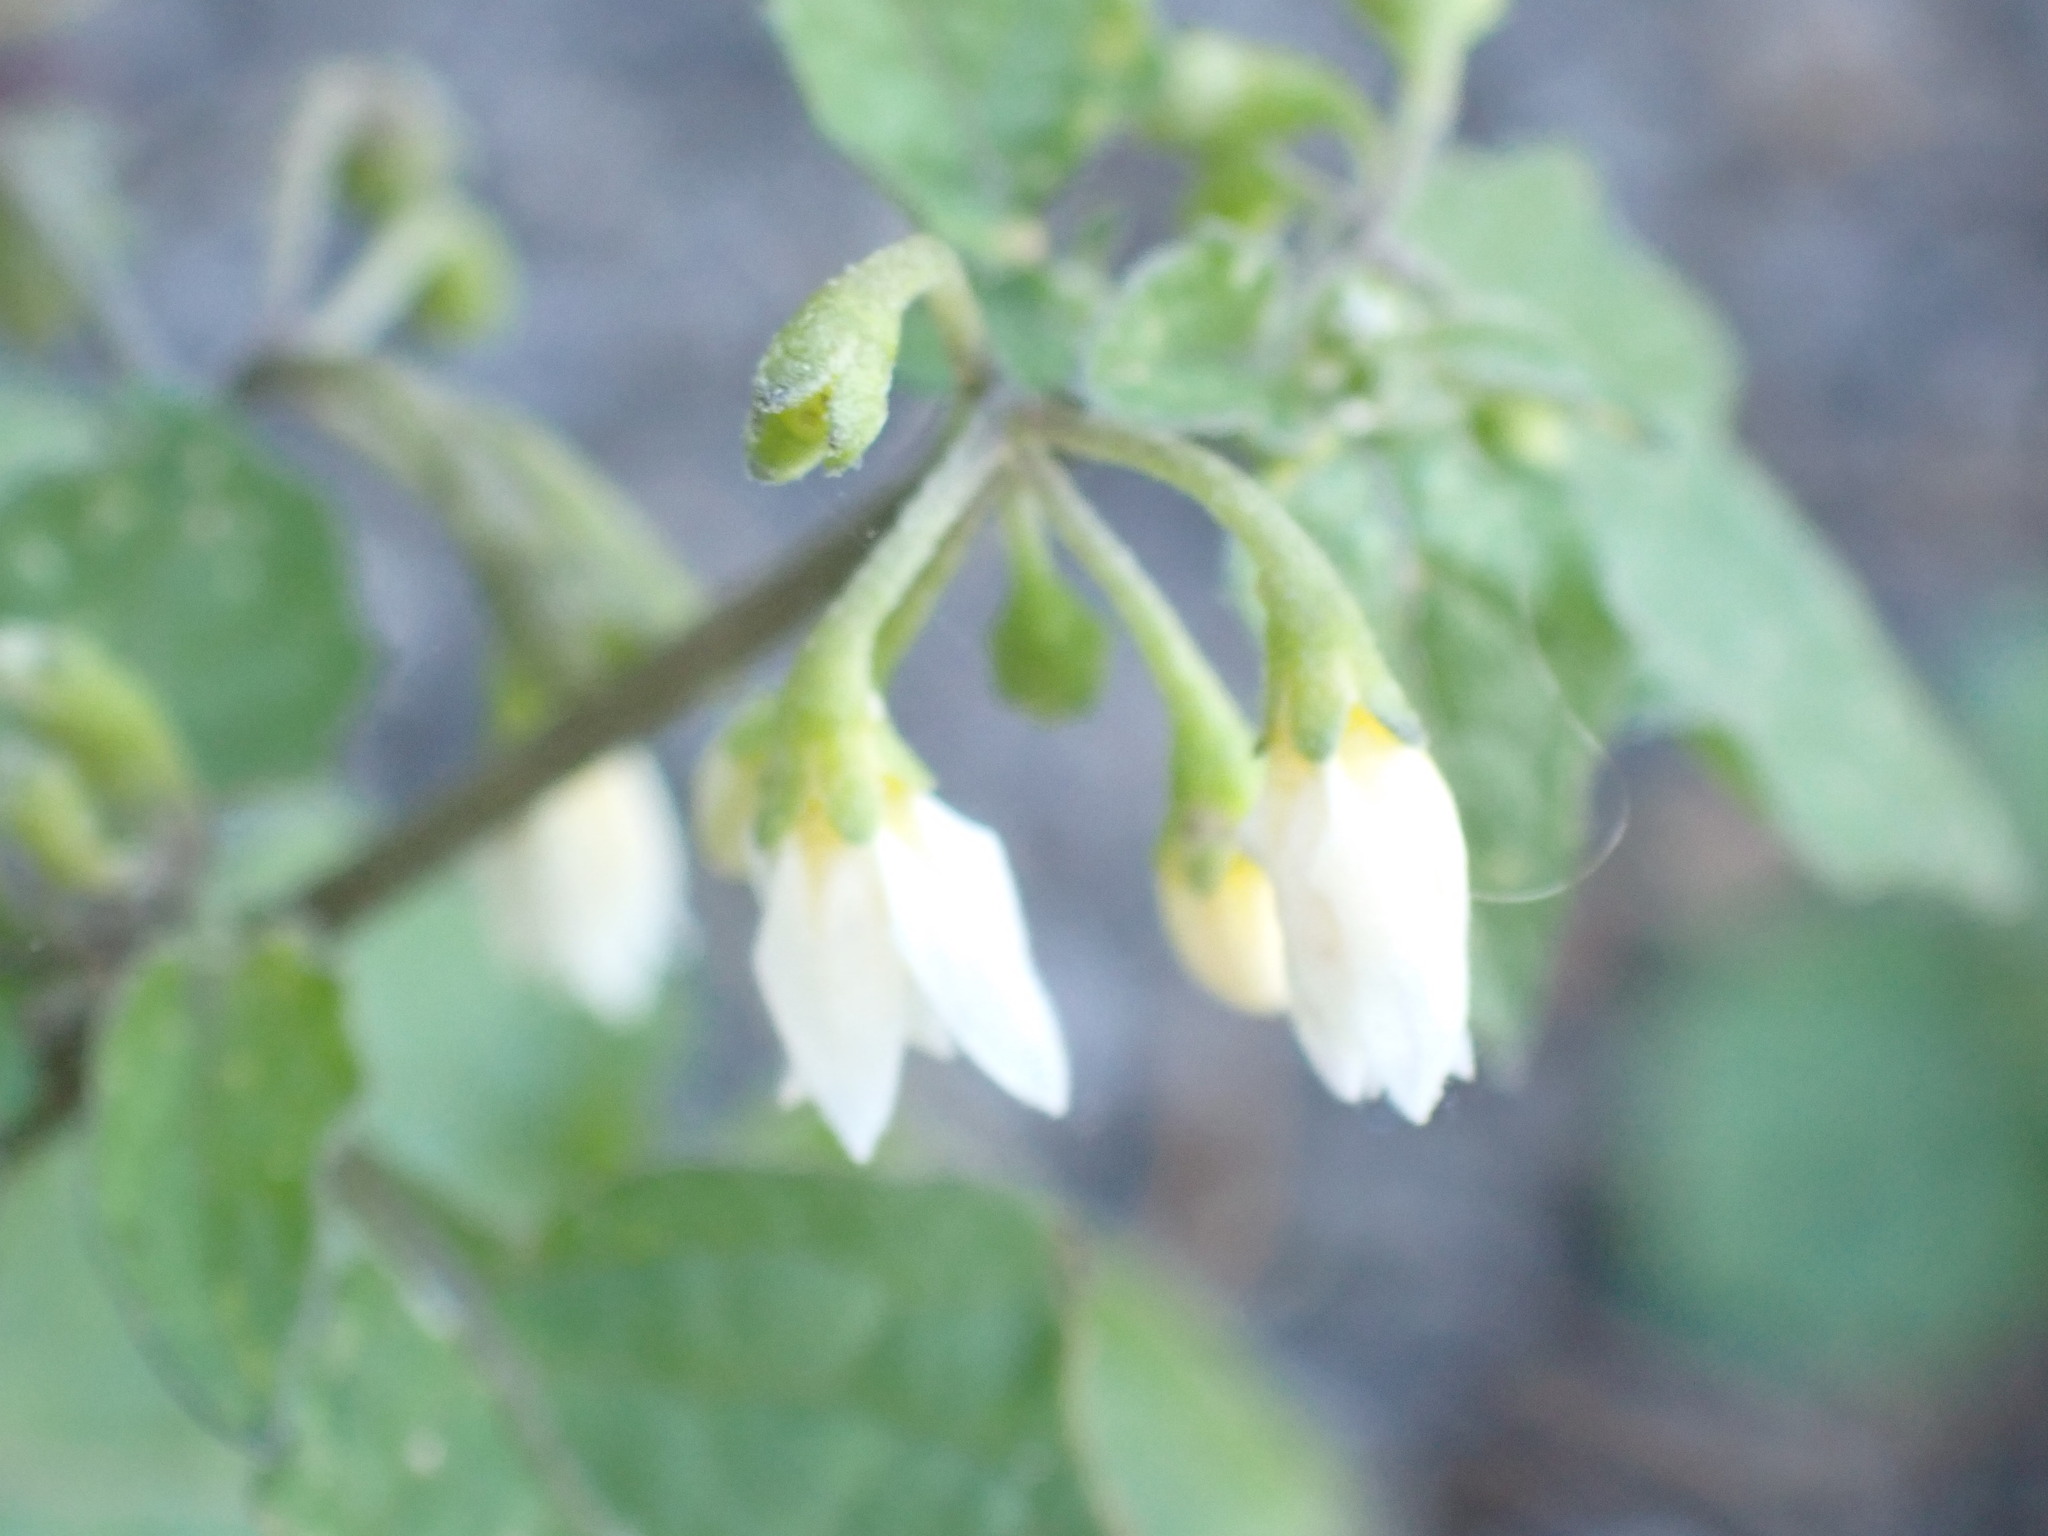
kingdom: Plantae
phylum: Tracheophyta
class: Magnoliopsida
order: Solanales
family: Solanaceae
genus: Solanum
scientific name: Solanum nigrum
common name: Black nightshade
